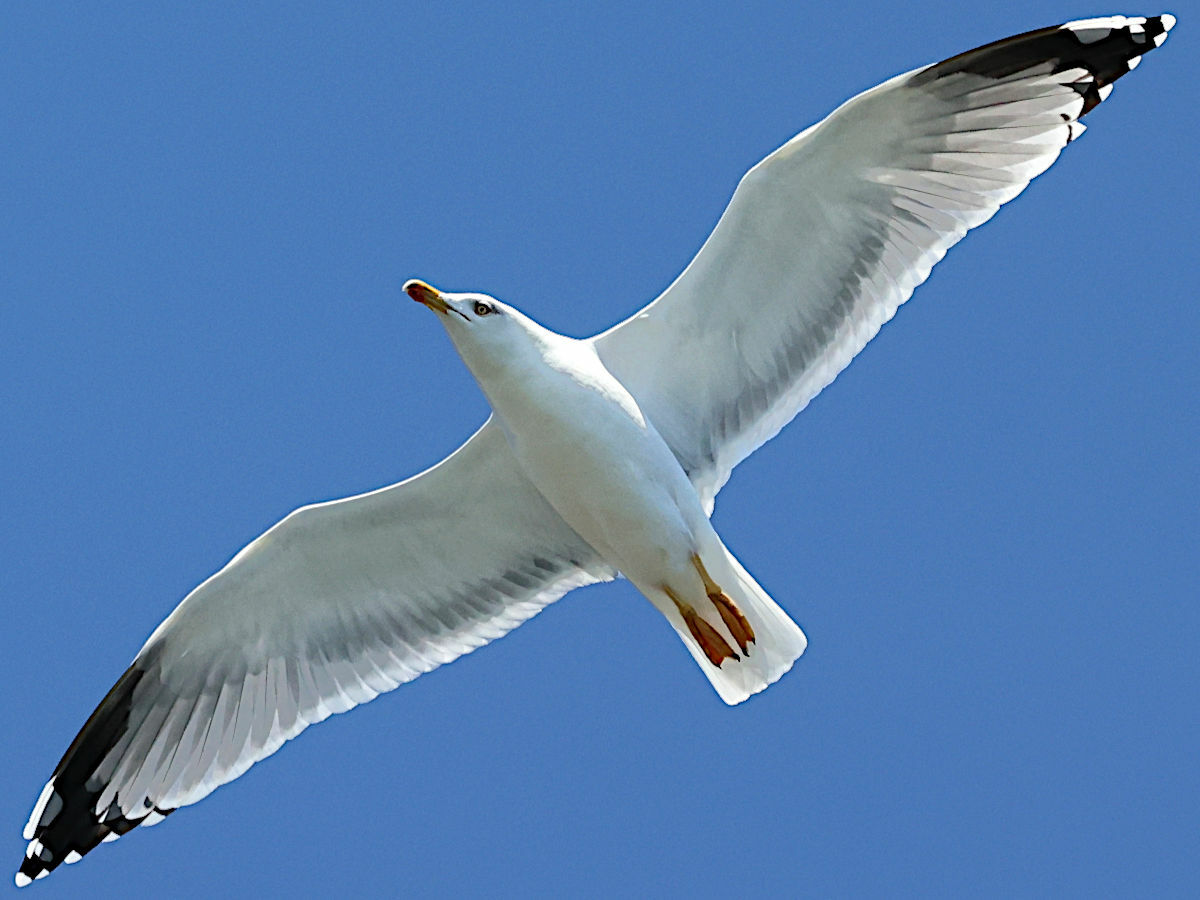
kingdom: Animalia
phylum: Chordata
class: Aves
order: Charadriiformes
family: Laridae
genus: Larus
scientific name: Larus michahellis
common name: Yellow-legged gull
